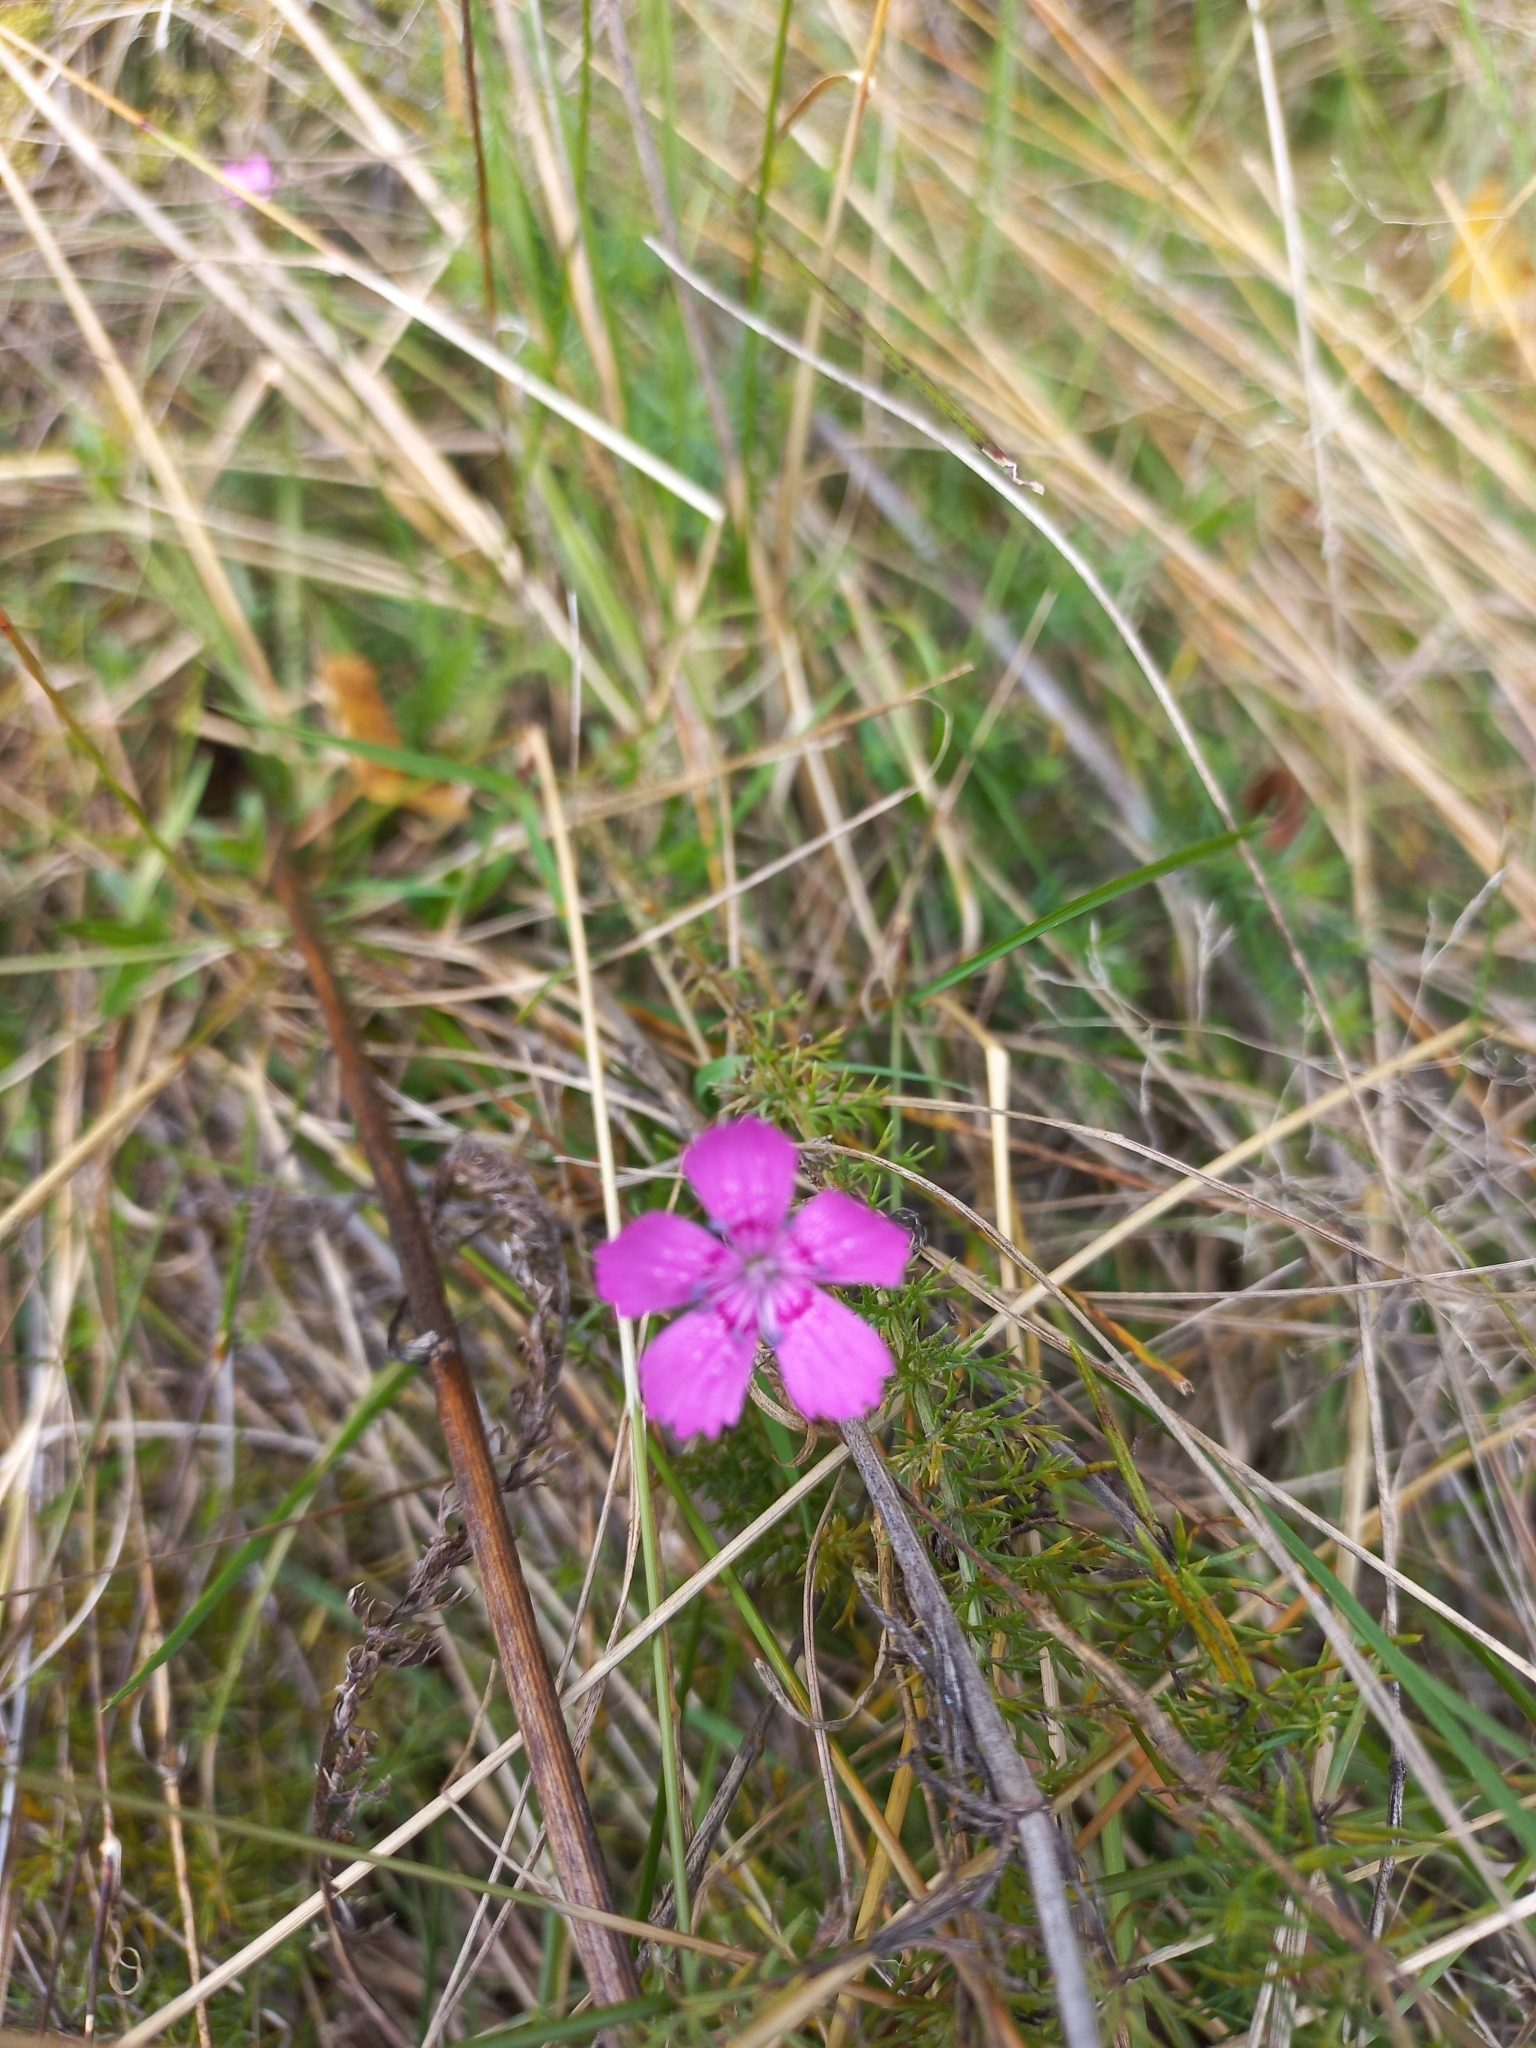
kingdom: Plantae
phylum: Tracheophyta
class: Magnoliopsida
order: Caryophyllales
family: Caryophyllaceae
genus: Dianthus
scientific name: Dianthus deltoides
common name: Maiden pink
